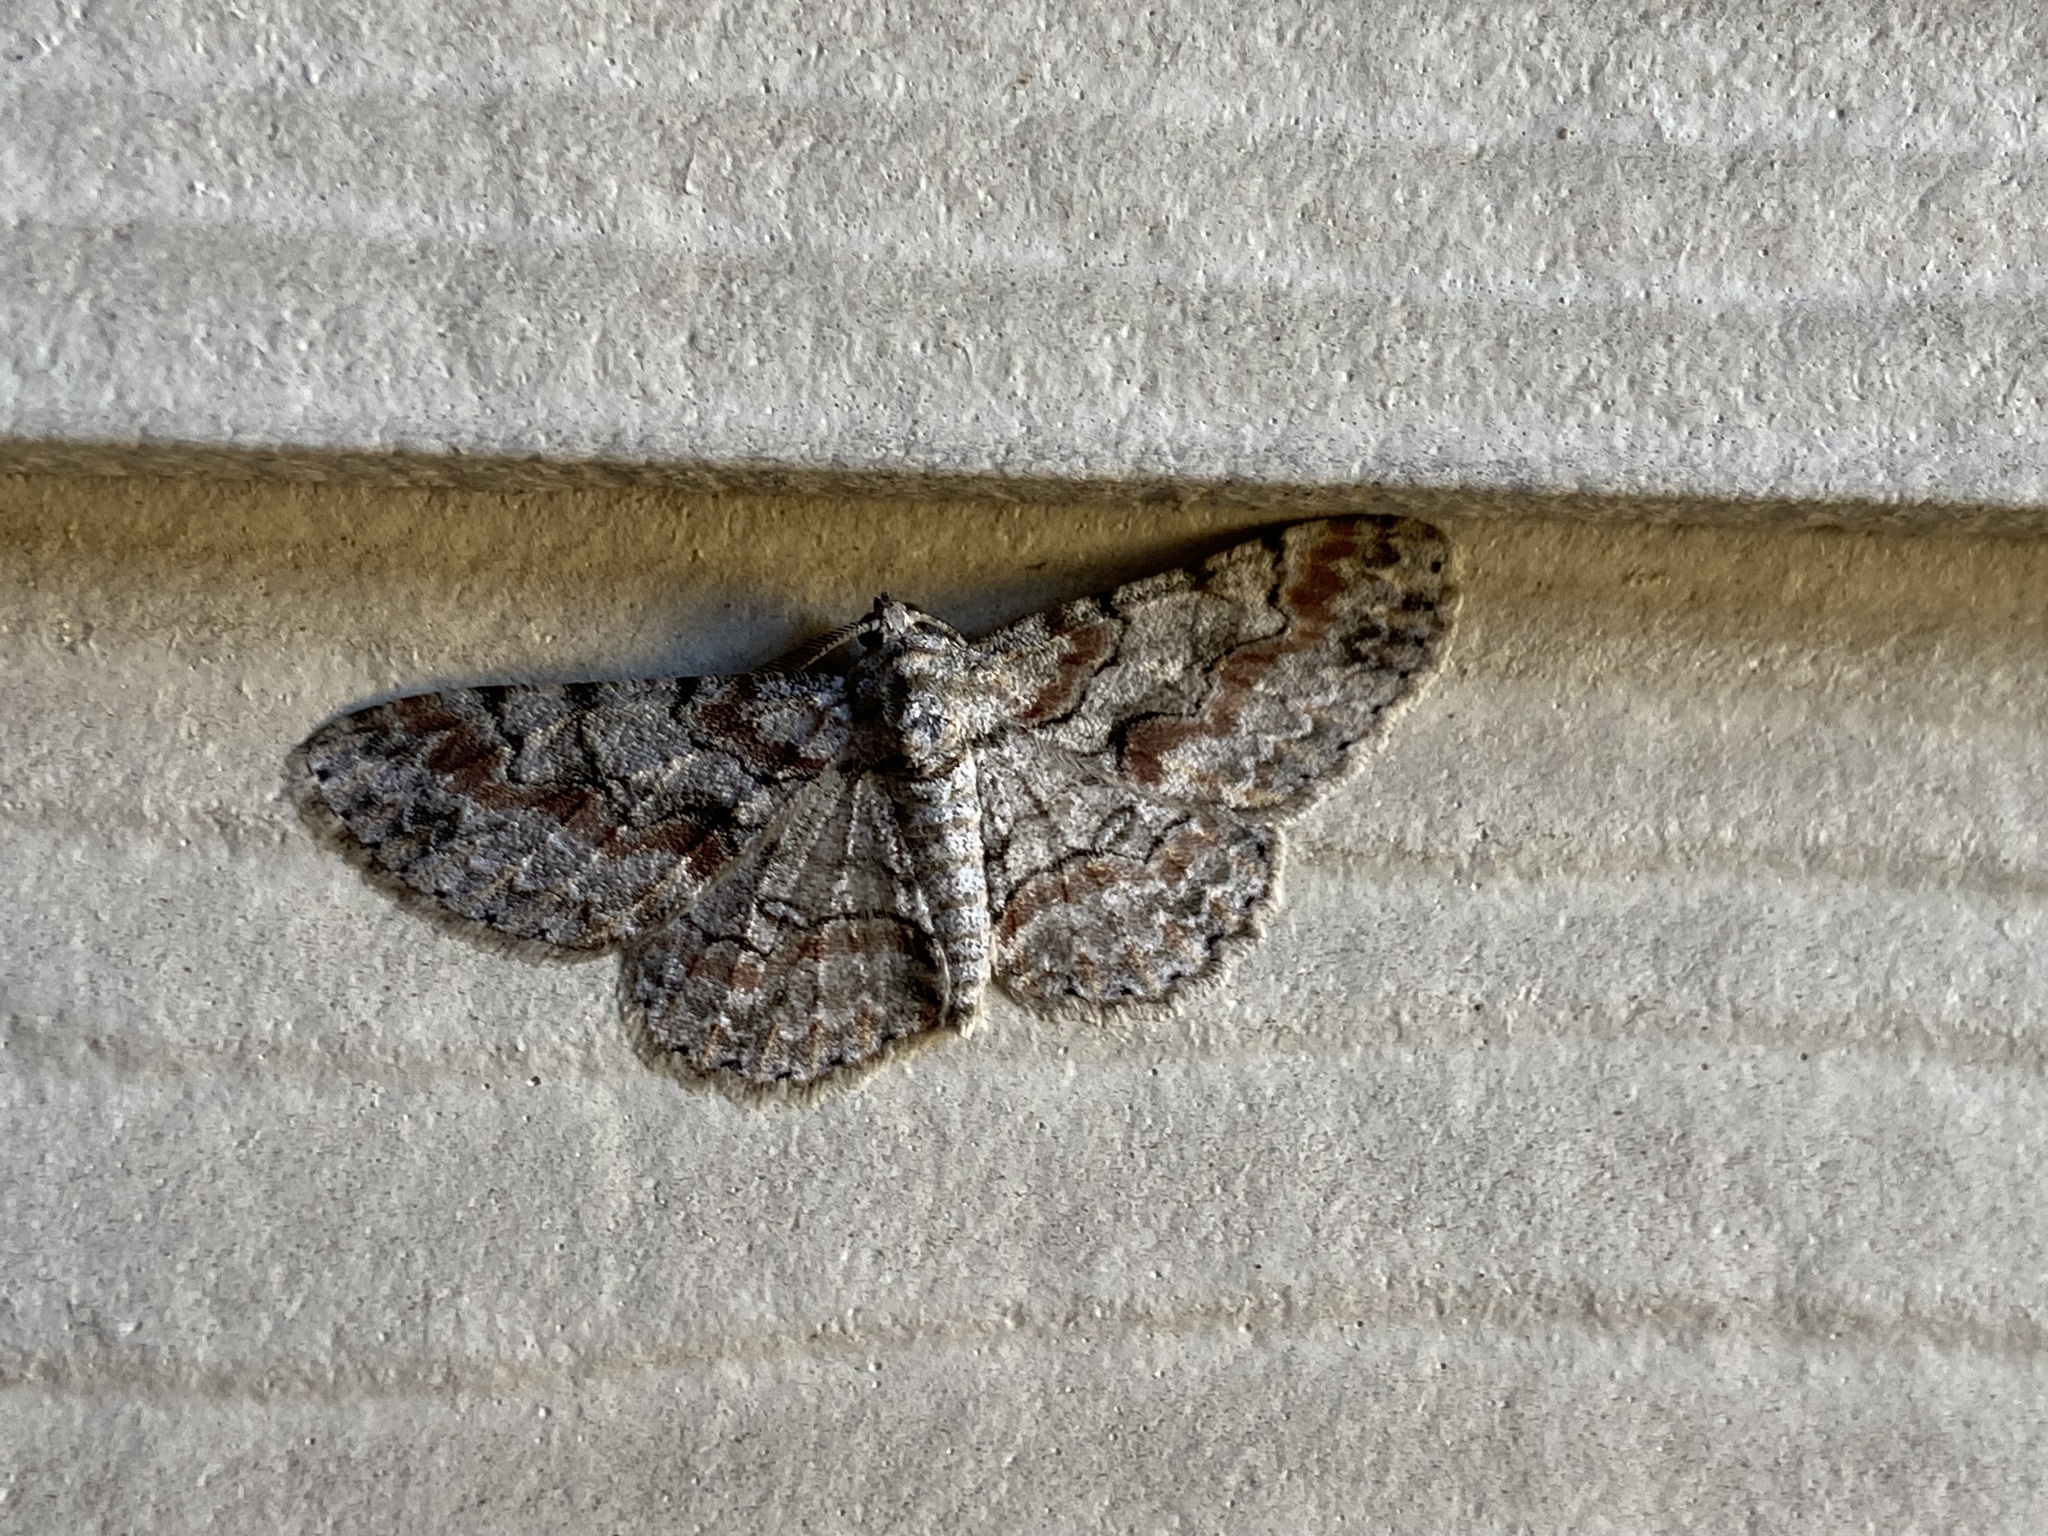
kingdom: Animalia
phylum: Arthropoda
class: Insecta
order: Lepidoptera
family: Geometridae
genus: Iridopsis
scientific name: Iridopsis defectaria
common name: Brown-shaded gray
